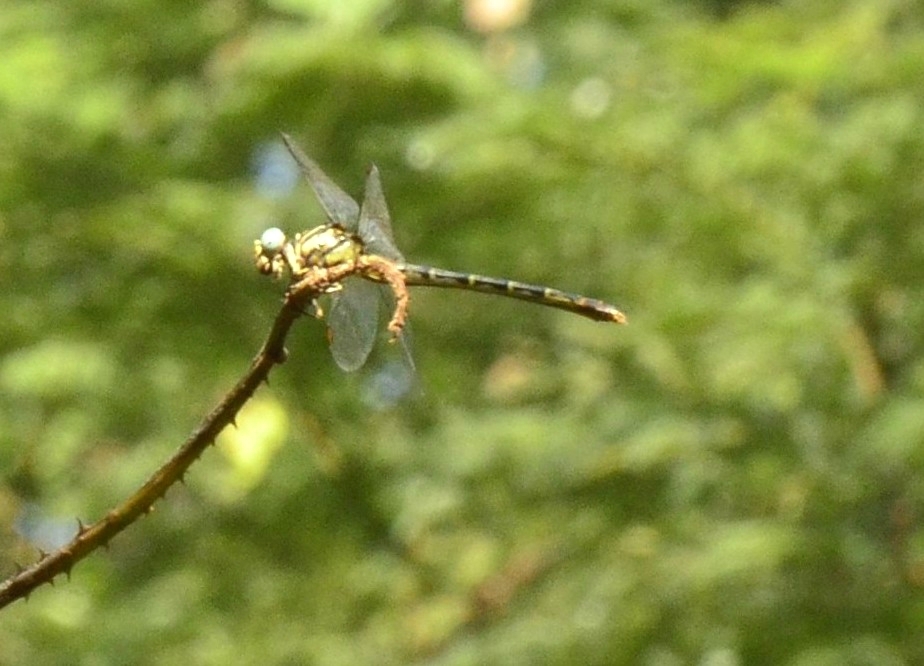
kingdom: Animalia
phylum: Arthropoda
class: Insecta
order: Odonata
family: Gomphidae
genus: Paragomphus
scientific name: Paragomphus lineatus
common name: Lined hooktail
